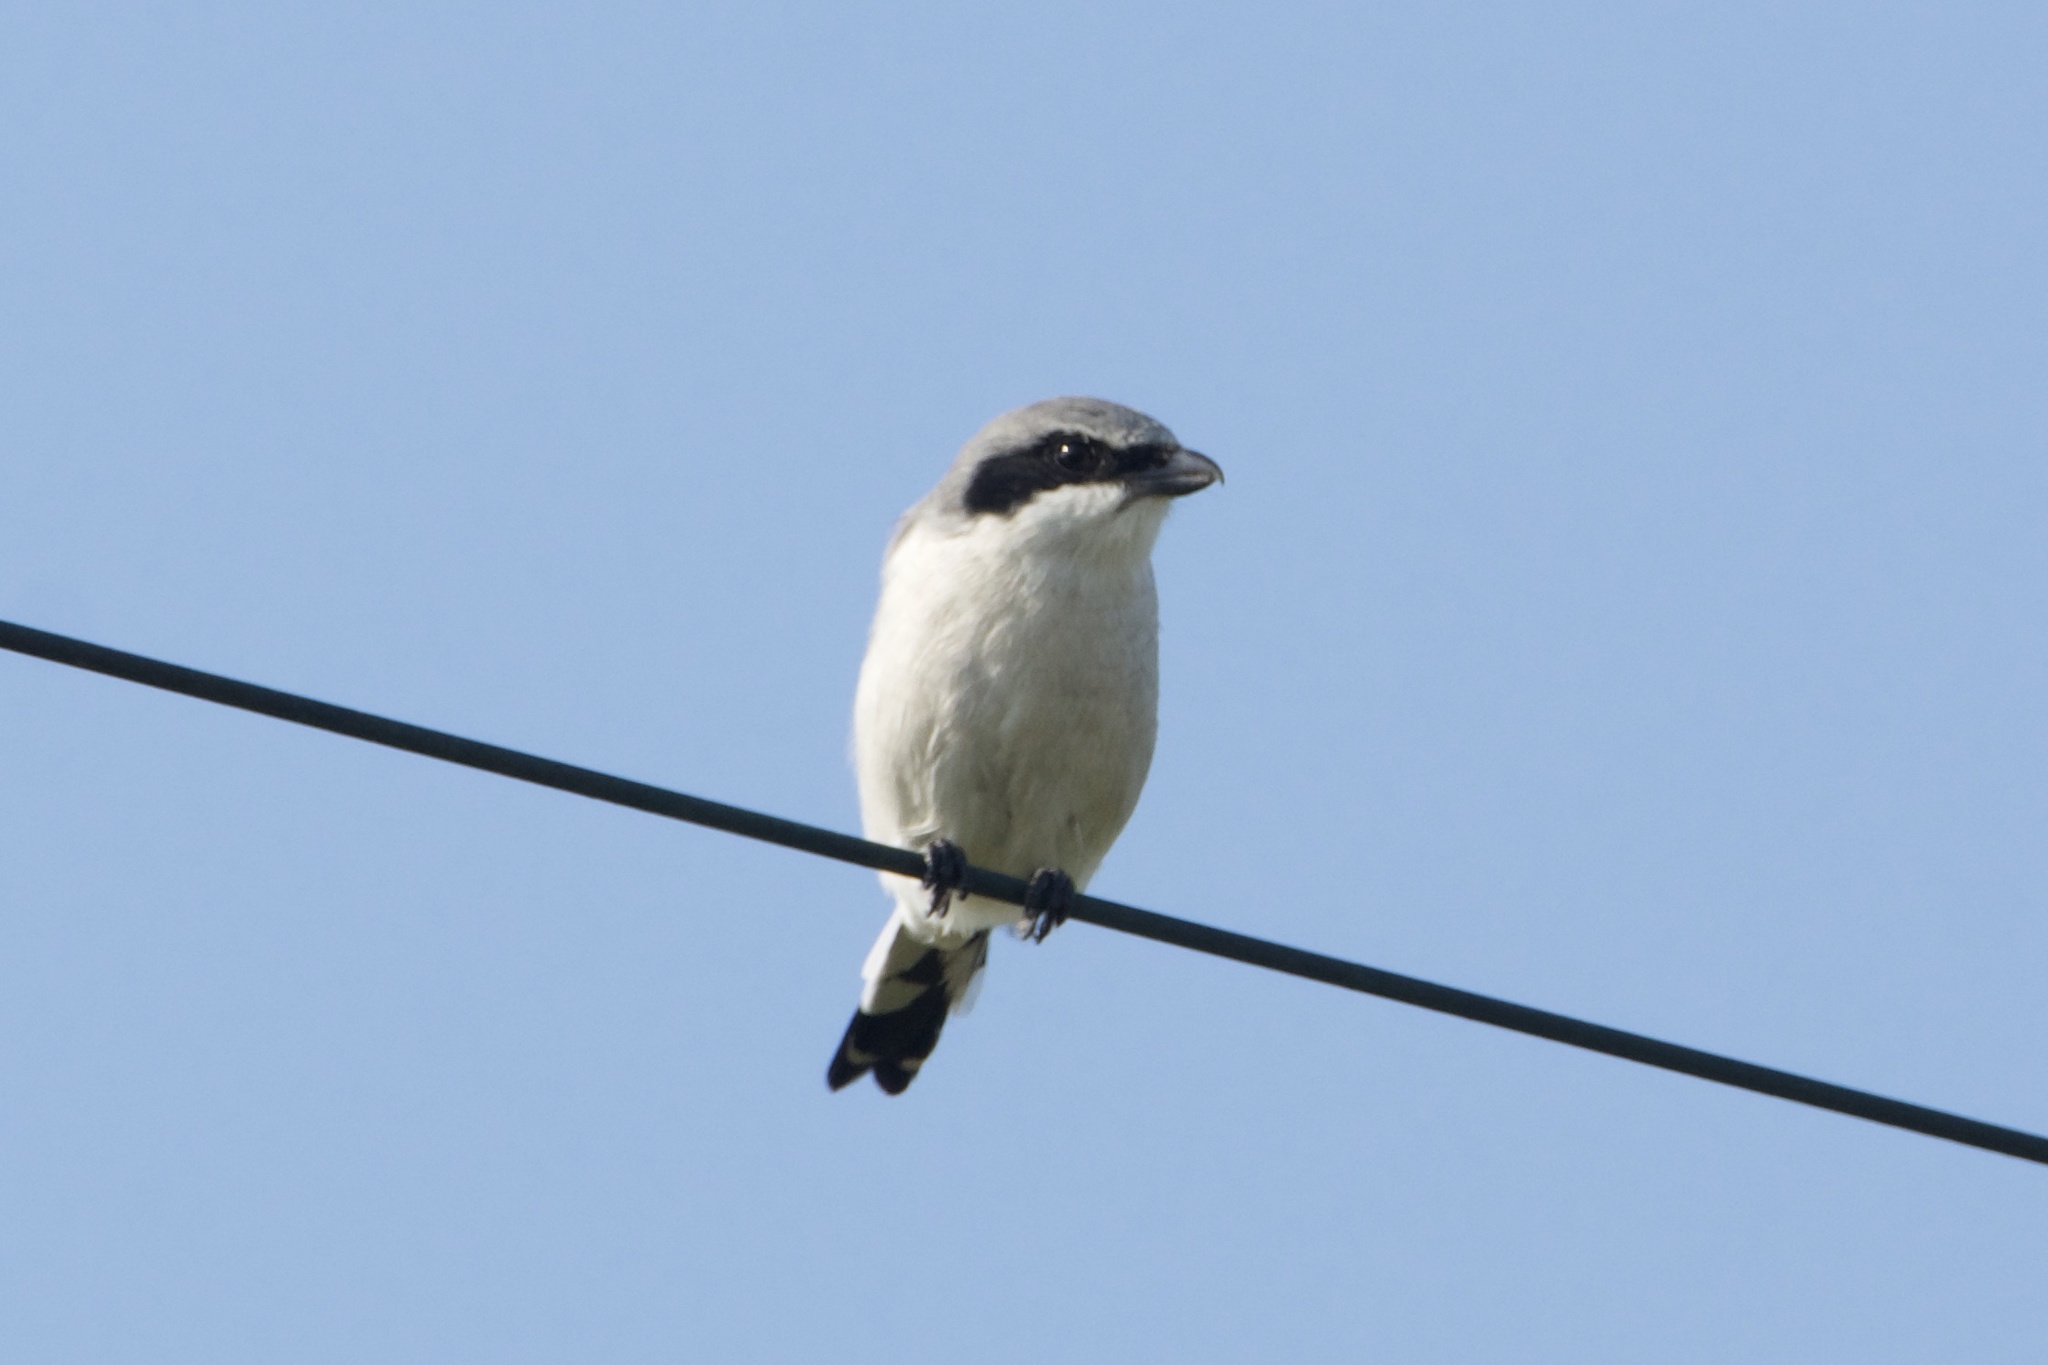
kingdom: Animalia
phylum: Chordata
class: Aves
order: Passeriformes
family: Laniidae
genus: Lanius
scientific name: Lanius ludovicianus
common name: Loggerhead shrike
